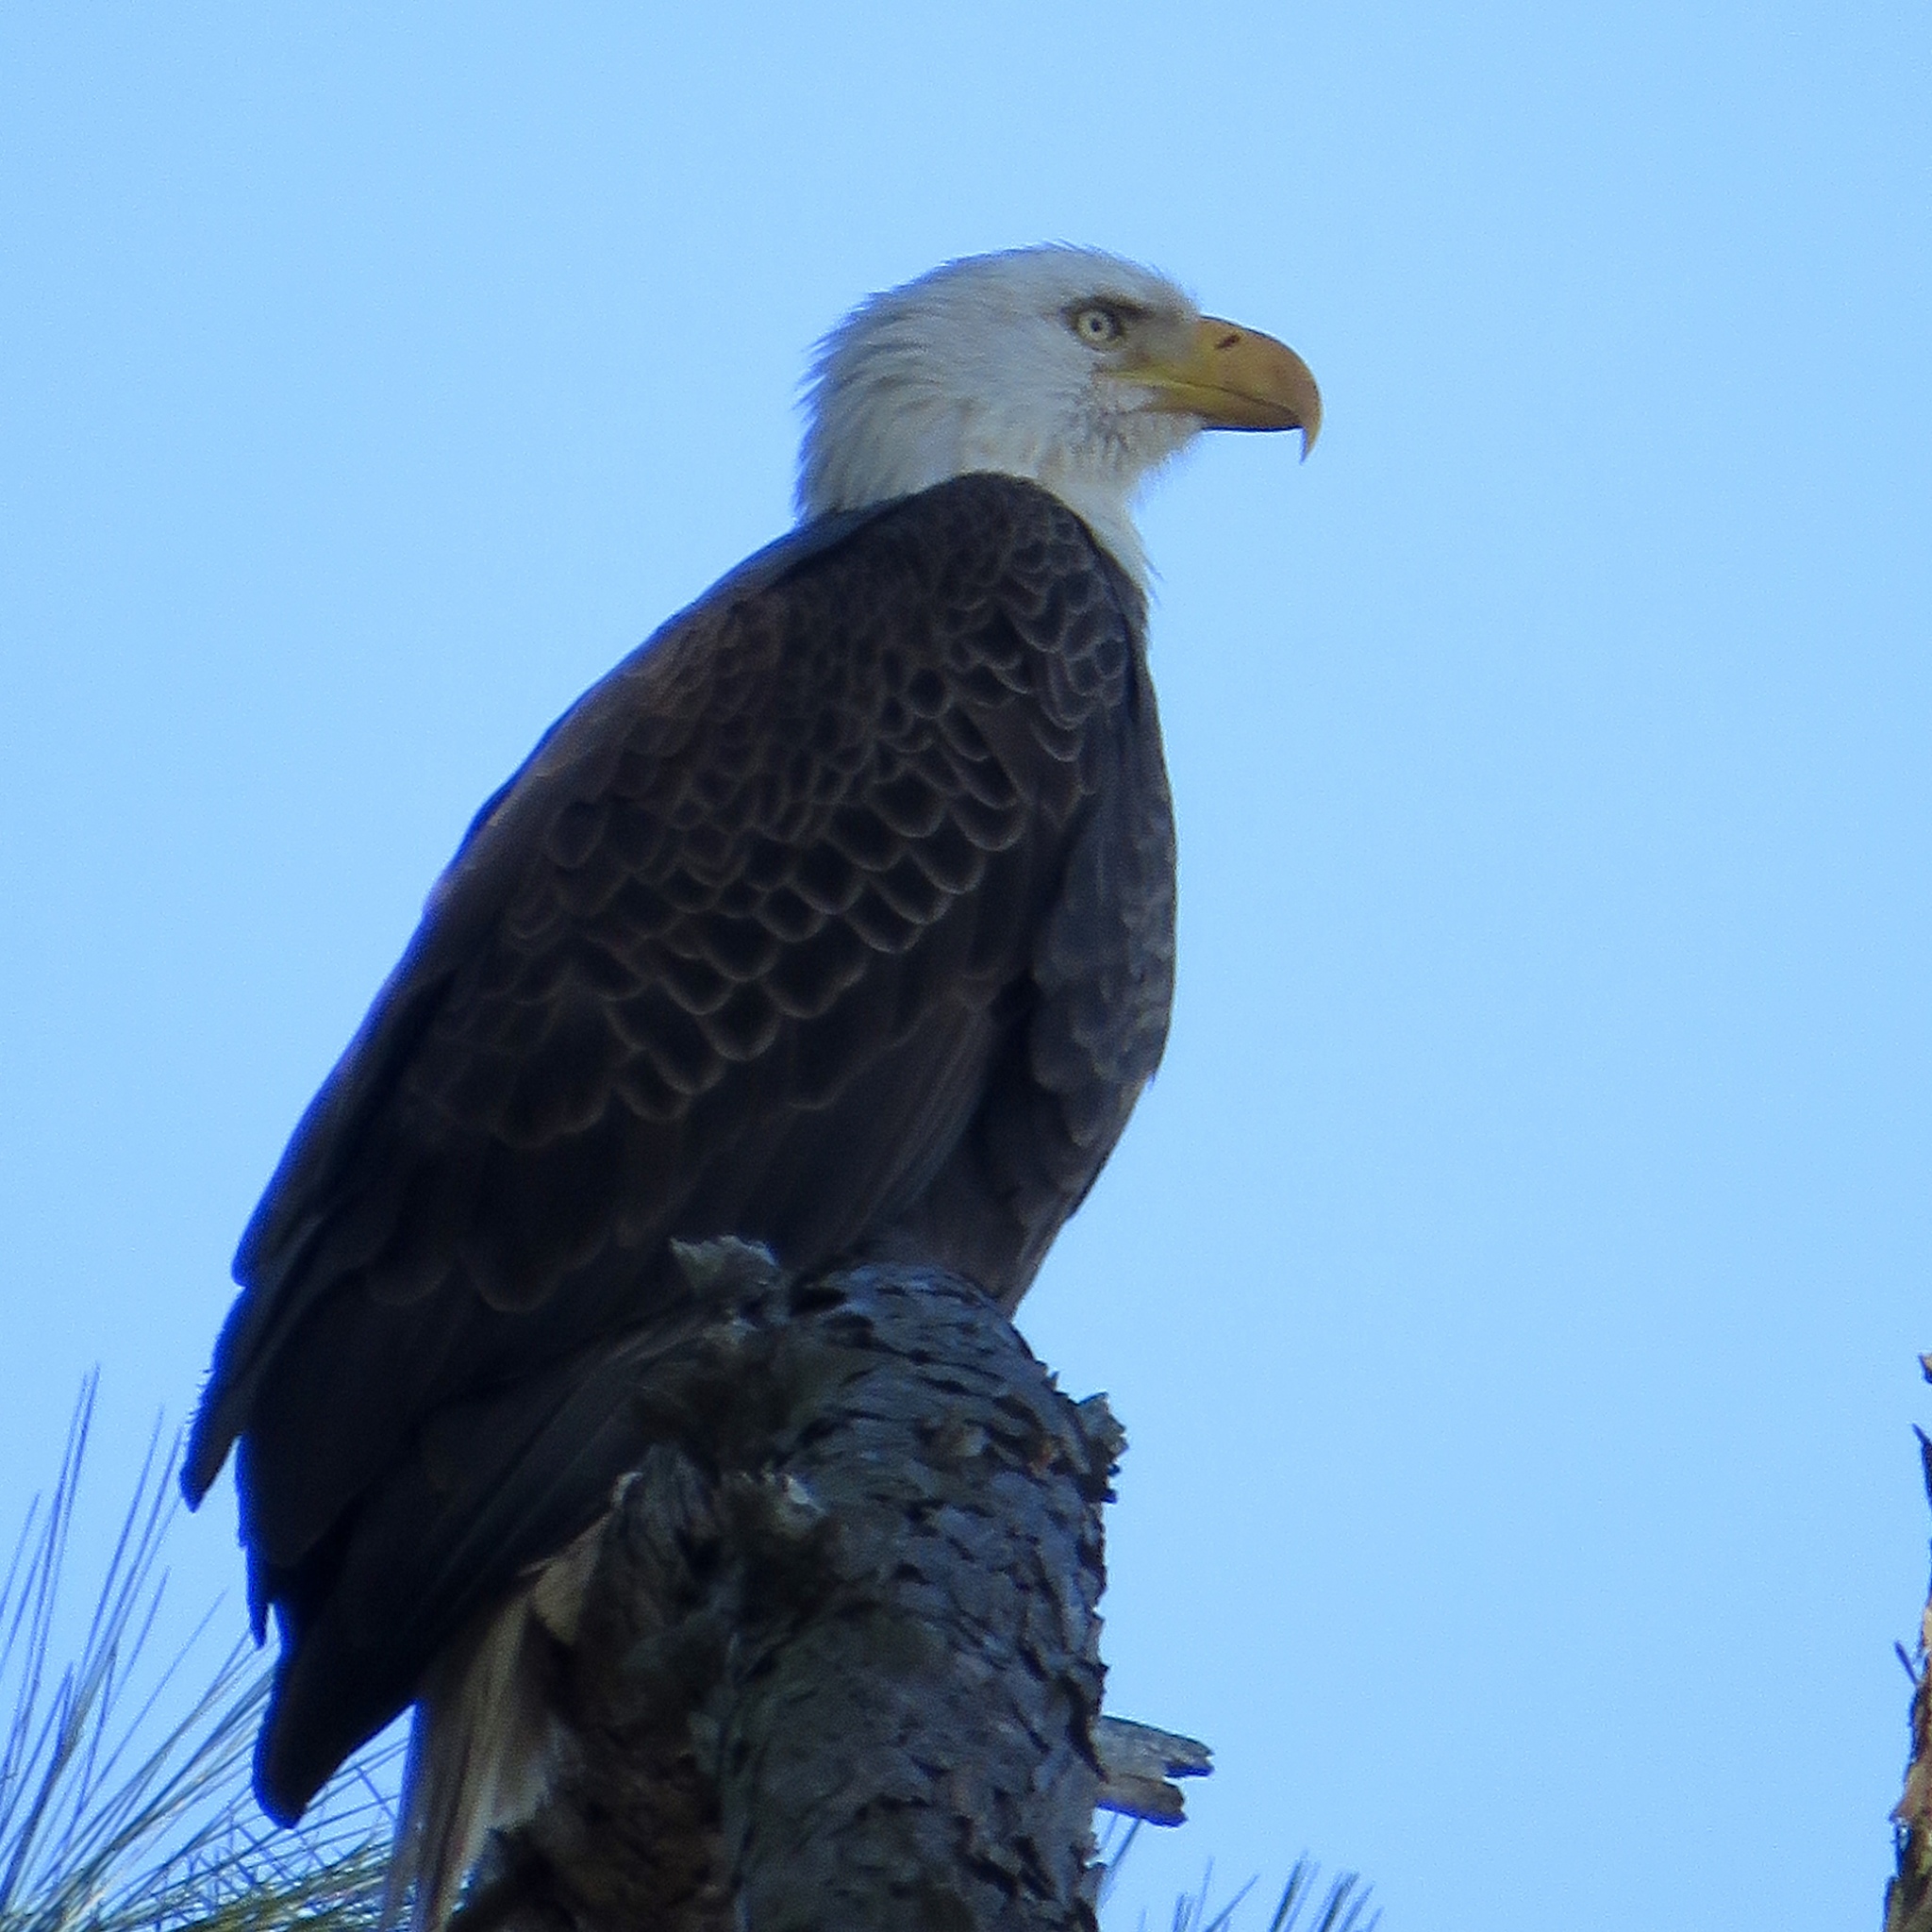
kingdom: Animalia
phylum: Chordata
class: Aves
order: Accipitriformes
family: Accipitridae
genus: Haliaeetus
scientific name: Haliaeetus leucocephalus
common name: Bald eagle
